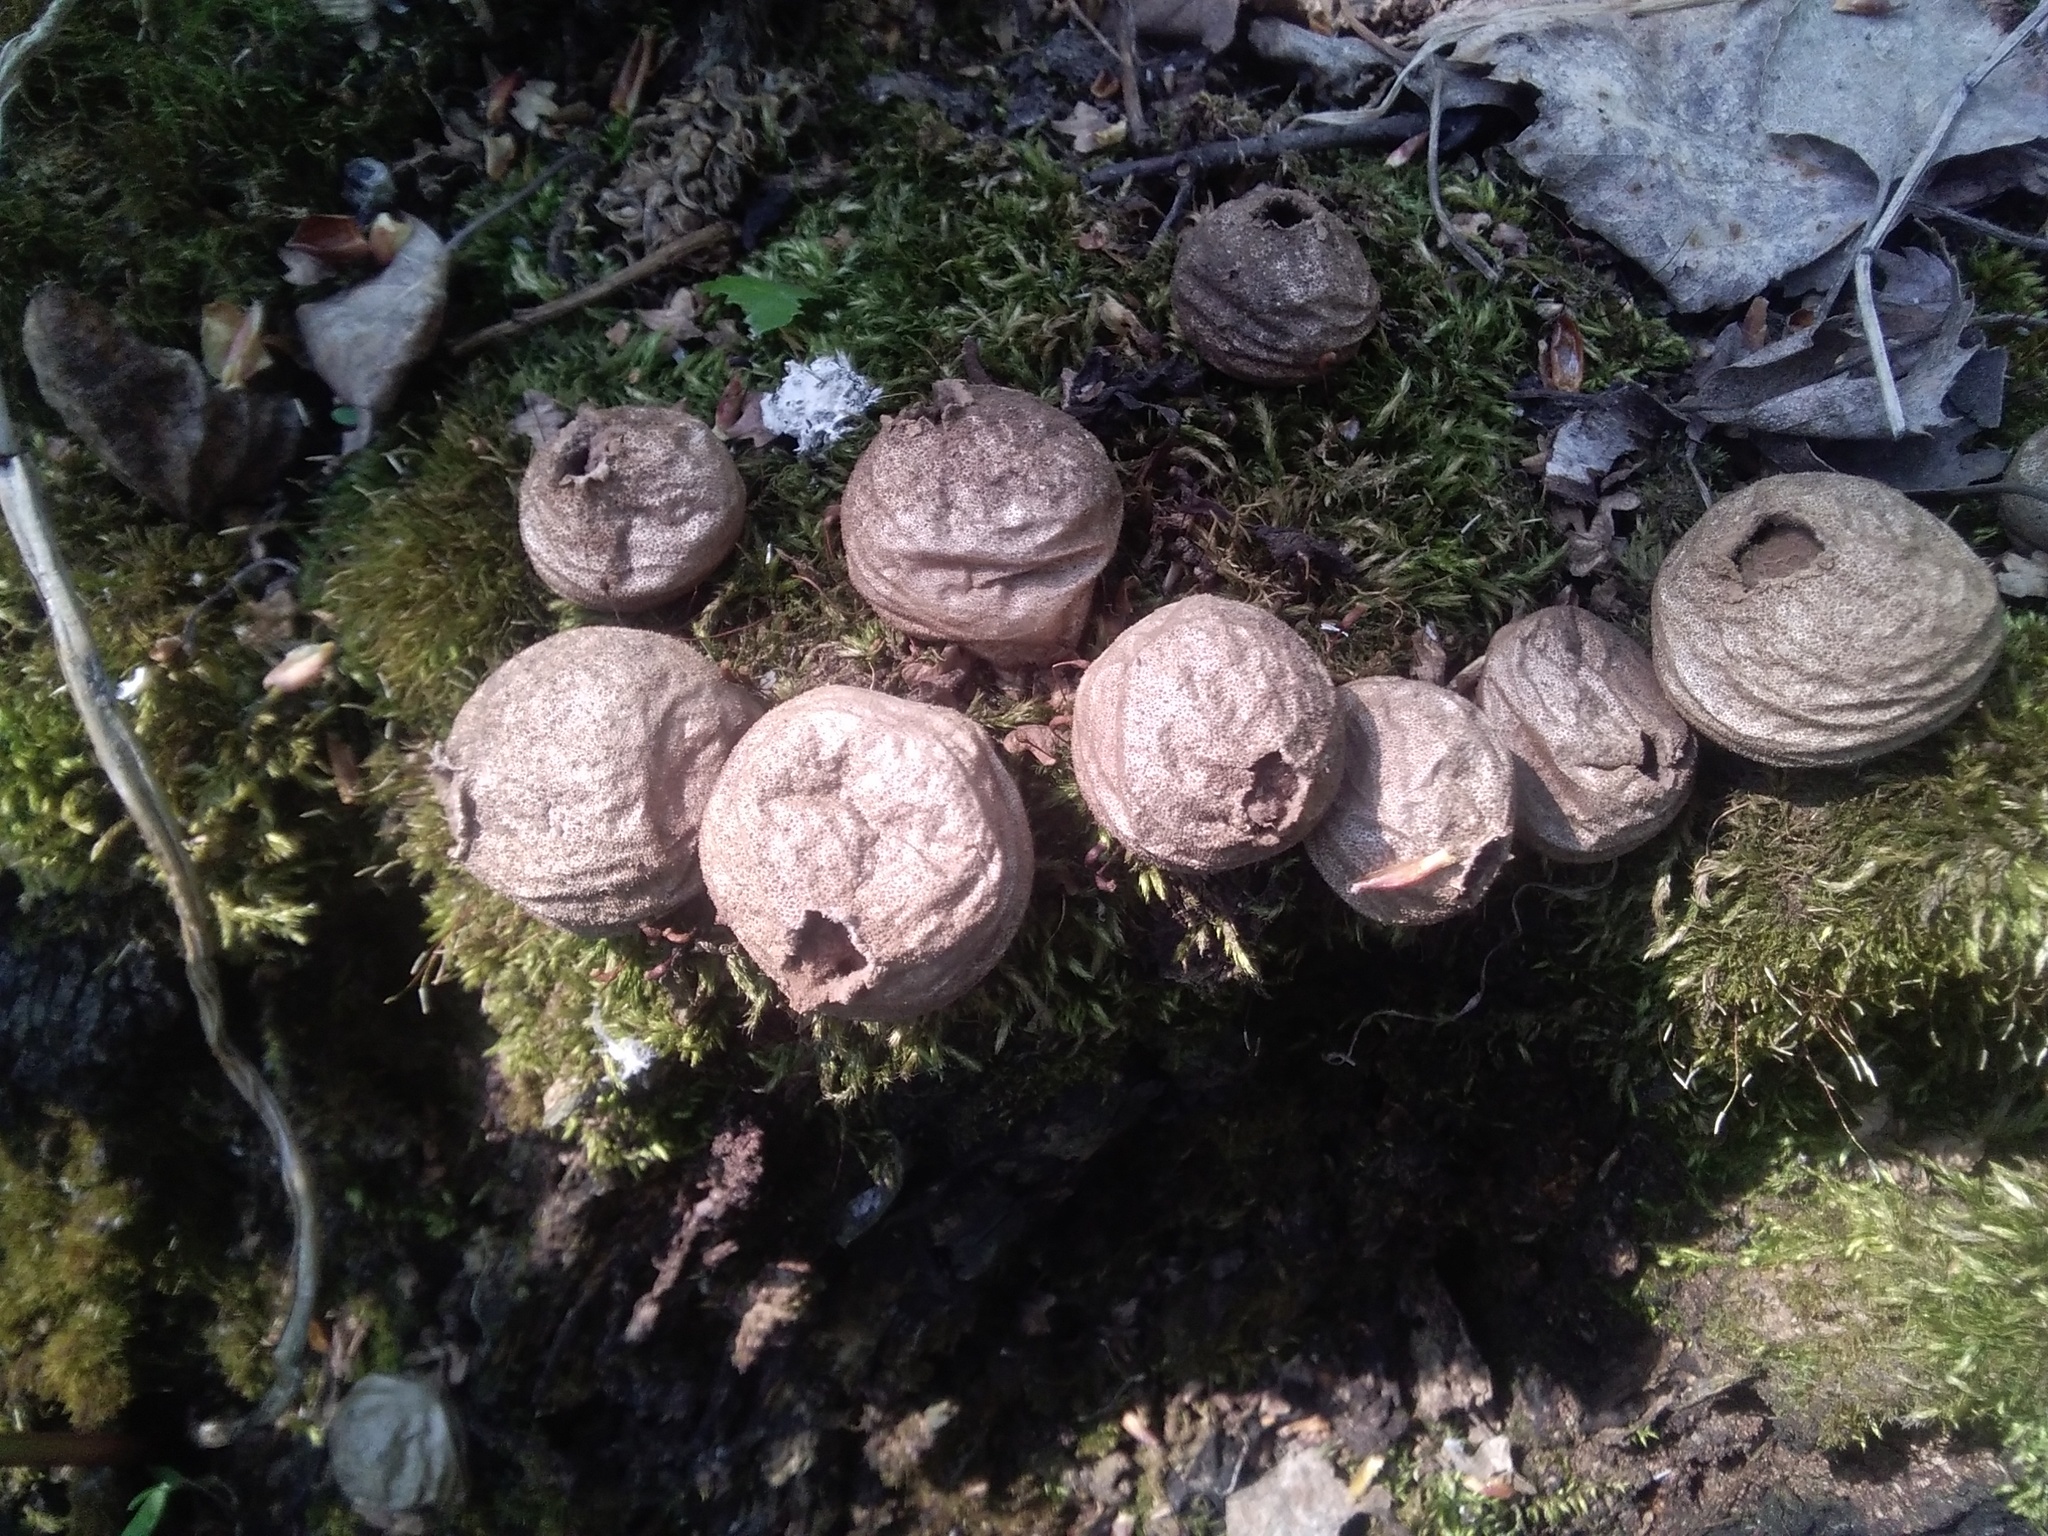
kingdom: Fungi
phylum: Basidiomycota
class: Agaricomycetes
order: Agaricales
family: Lycoperdaceae
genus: Apioperdon
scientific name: Apioperdon pyriforme
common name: Pear-shaped puffball
